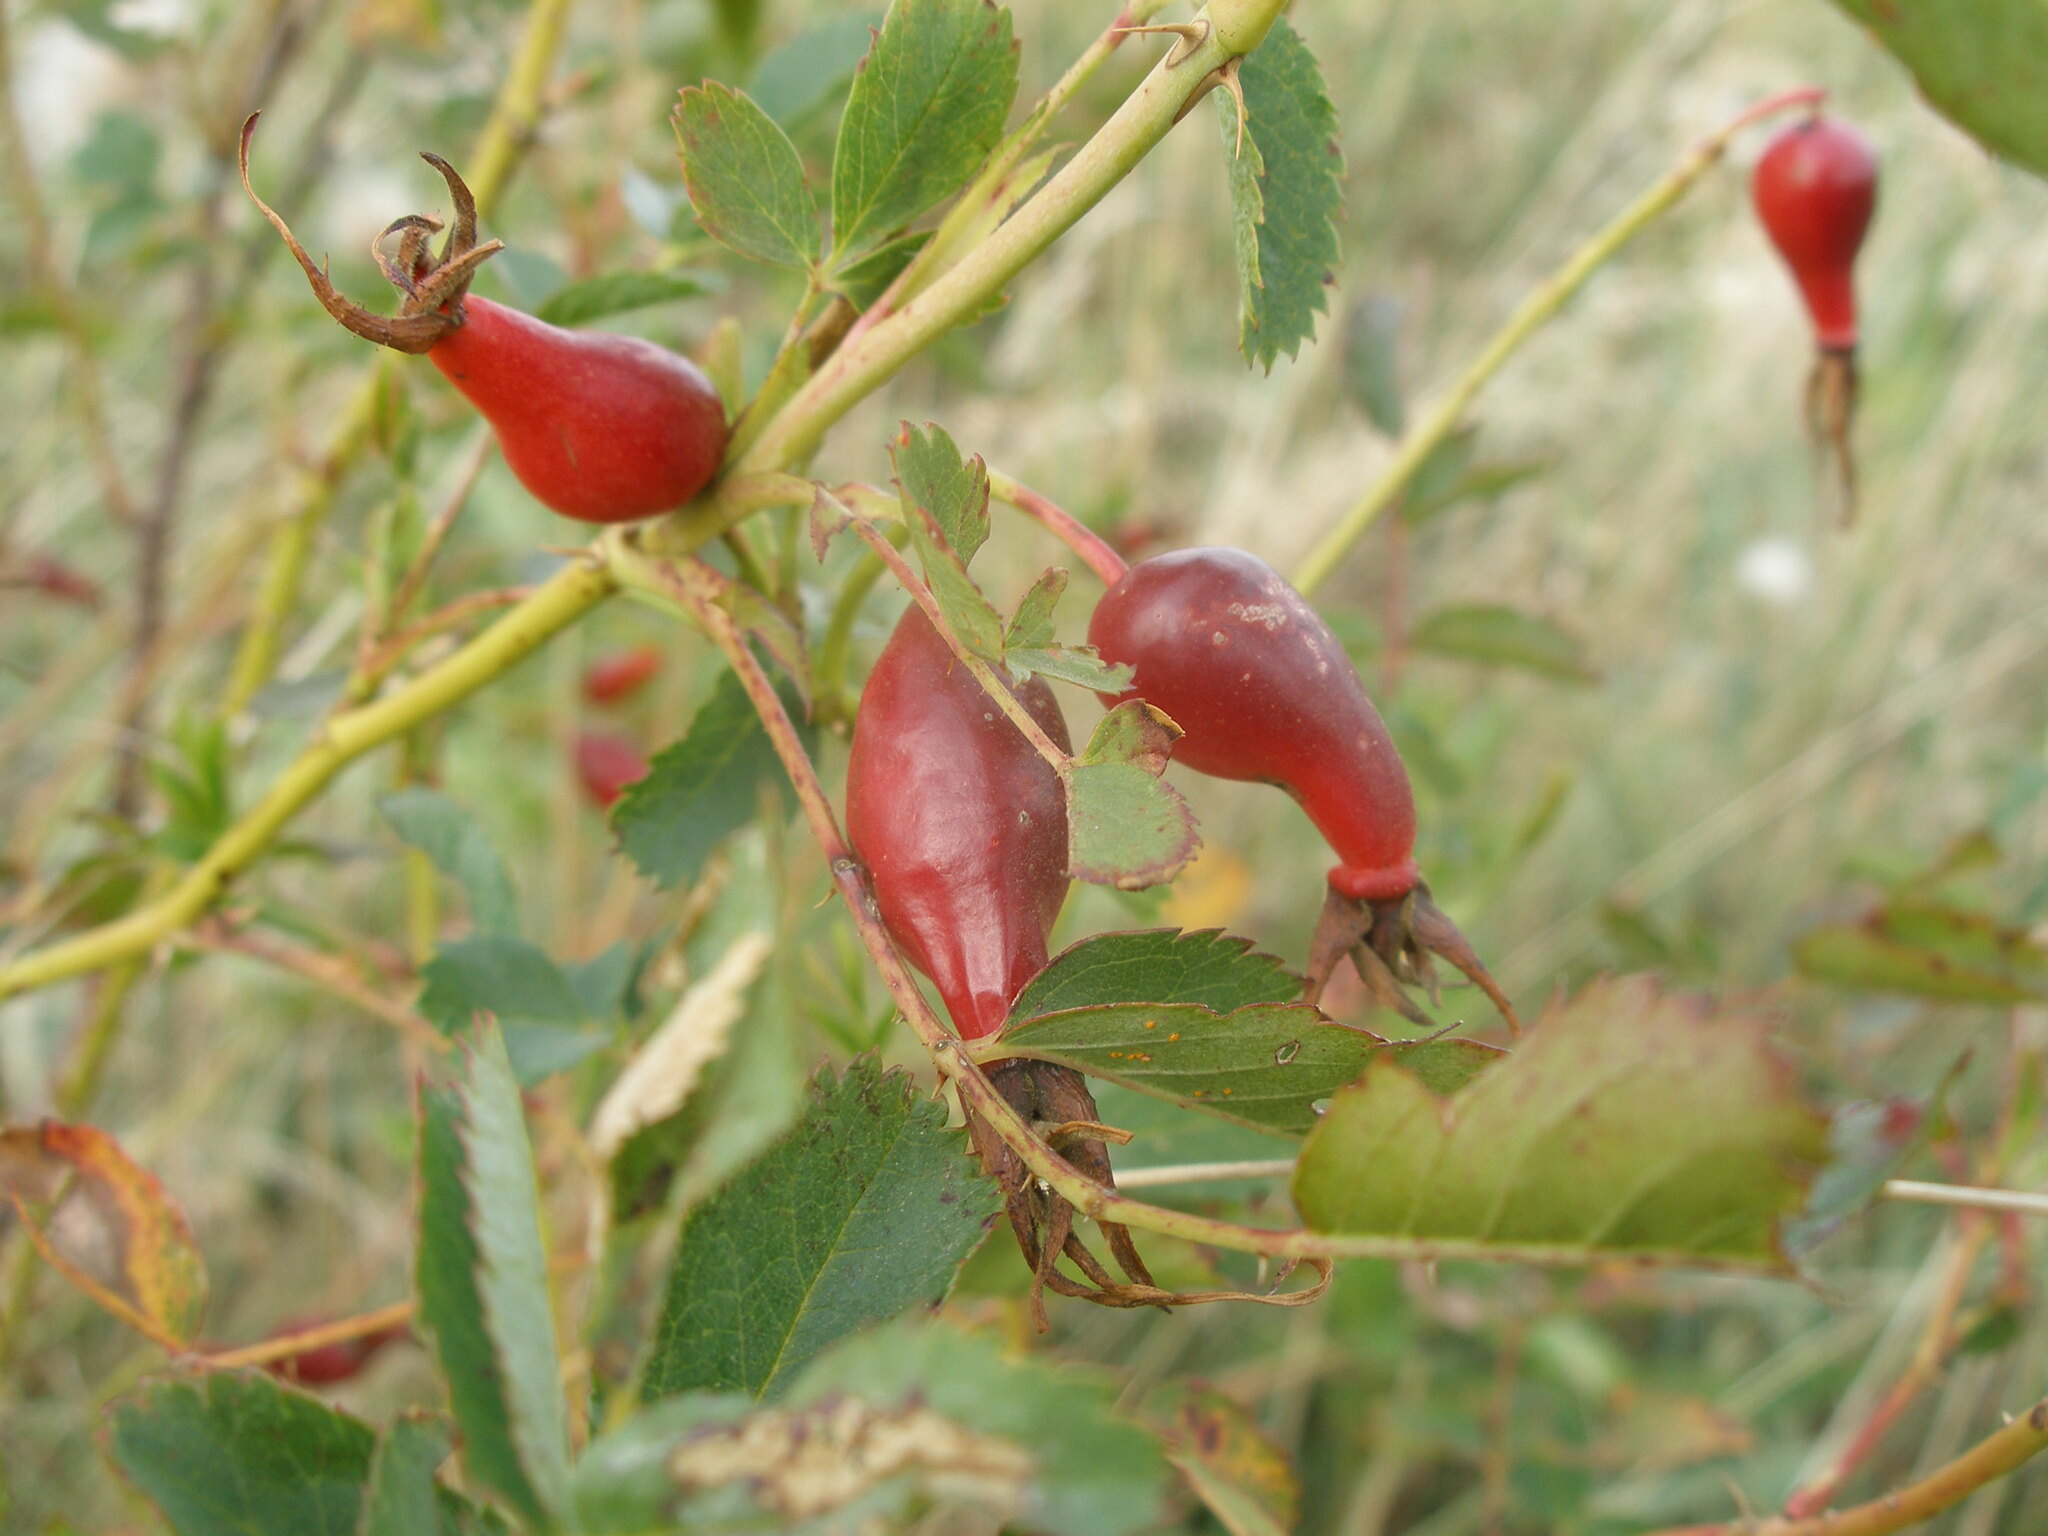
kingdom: Plantae
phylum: Tracheophyta
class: Magnoliopsida
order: Rosales
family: Rosaceae
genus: Rosa
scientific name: Rosa majalis
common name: Cinnamon rose
